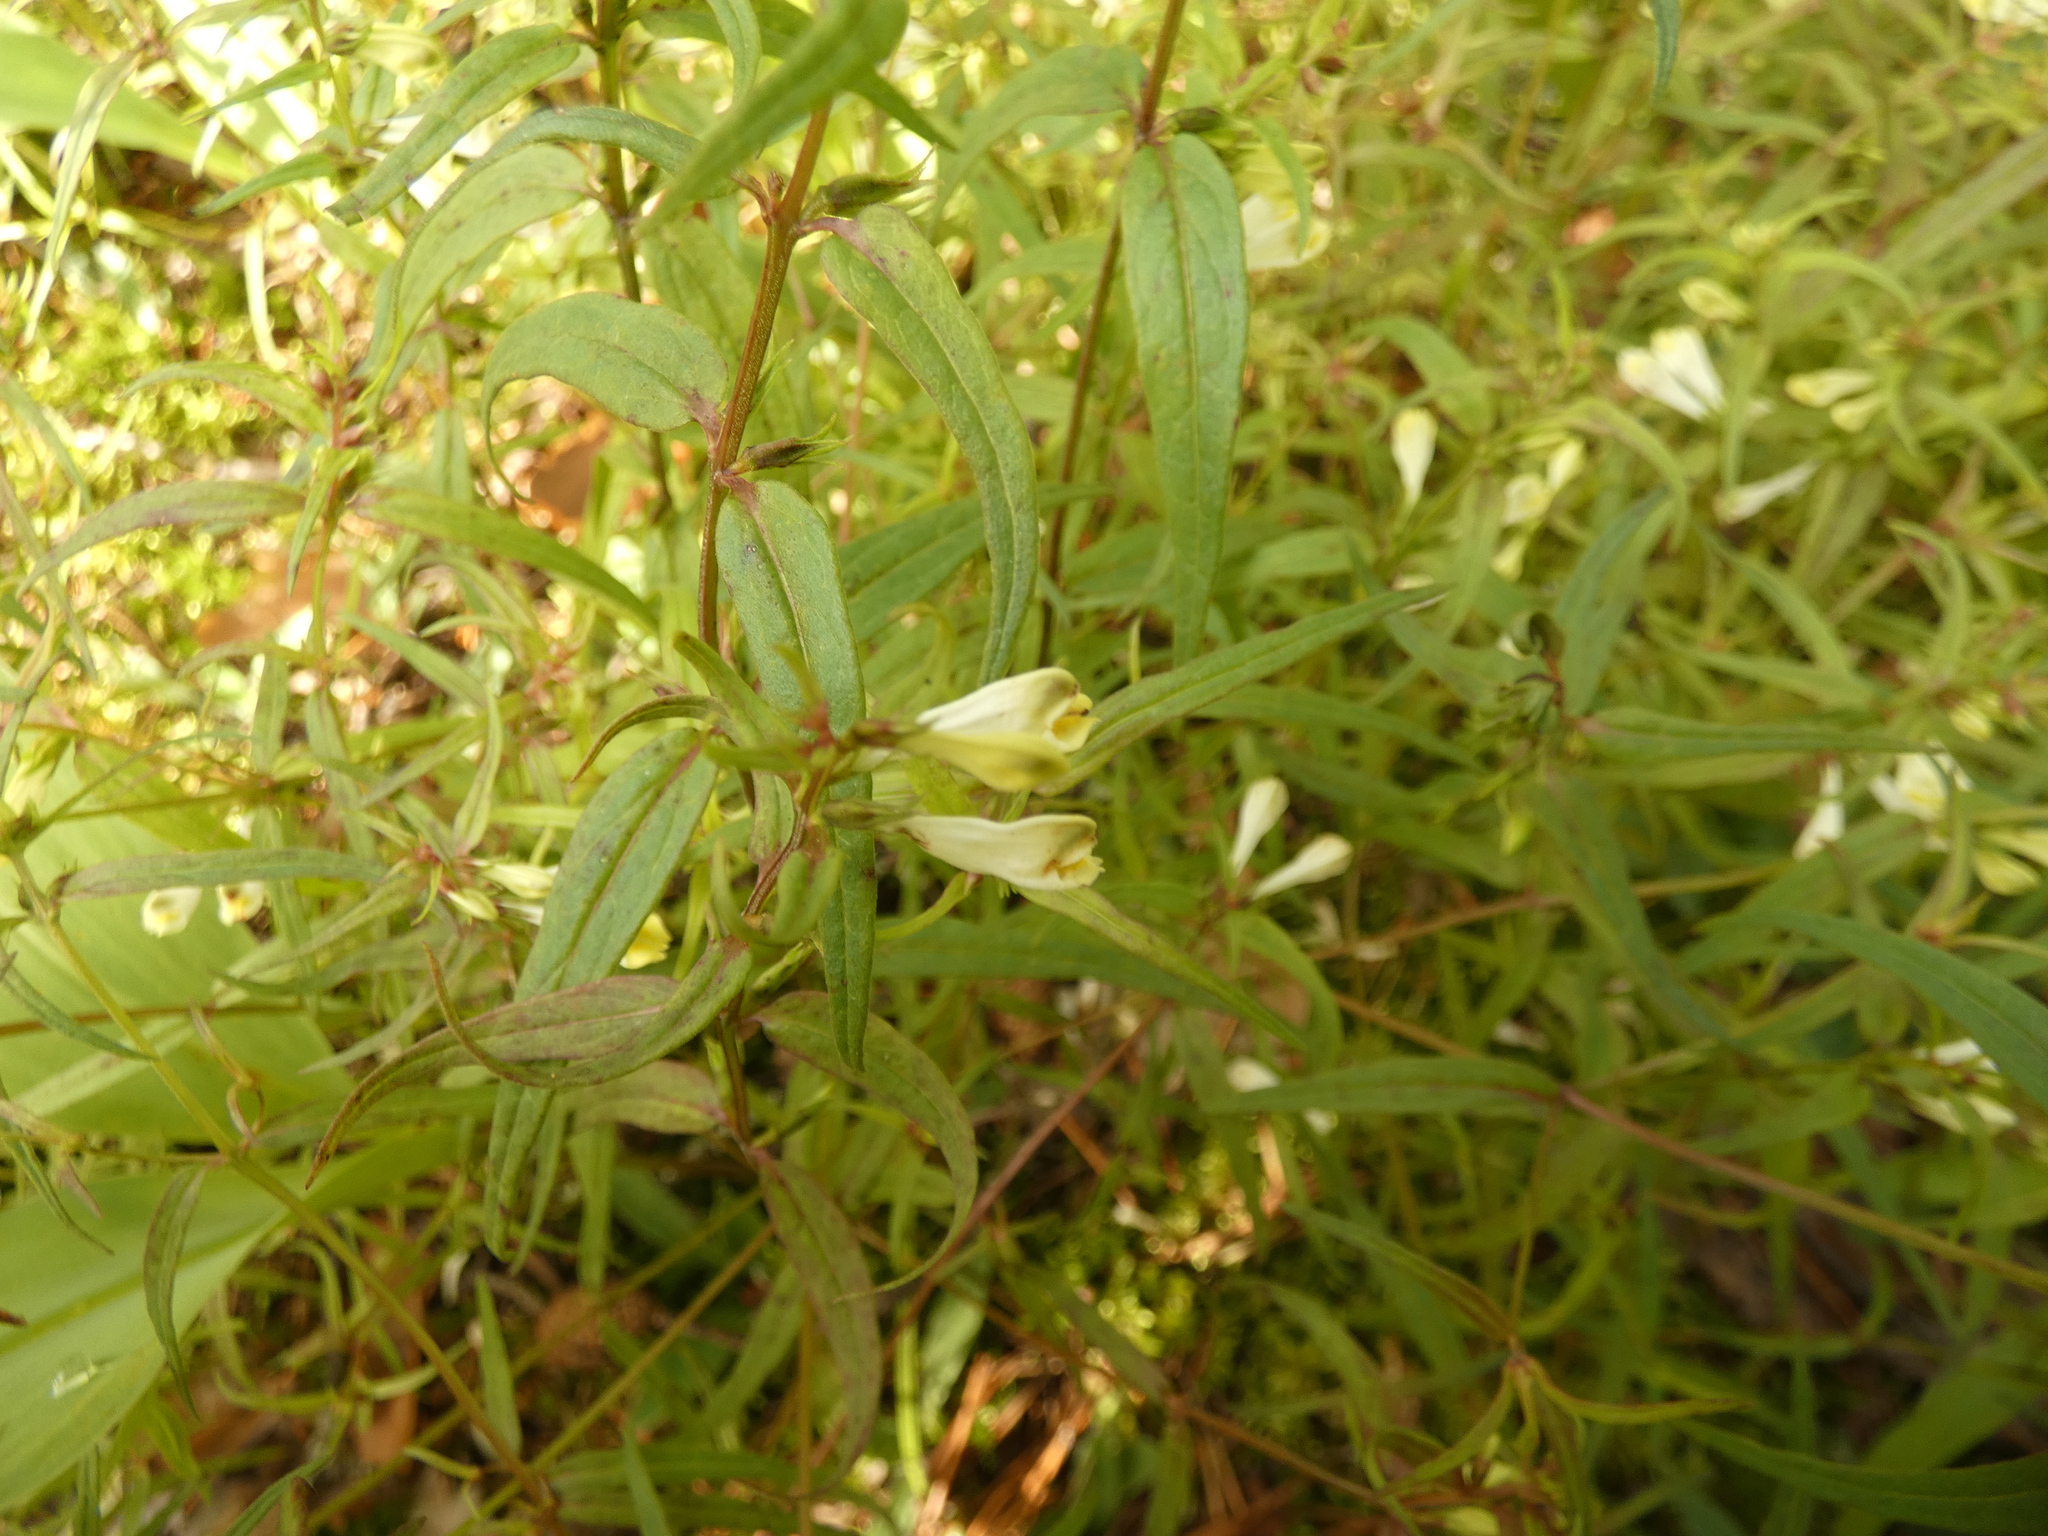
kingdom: Plantae
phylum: Tracheophyta
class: Magnoliopsida
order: Lamiales
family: Orobanchaceae
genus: Melampyrum
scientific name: Melampyrum pratense
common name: Common cow-wheat
